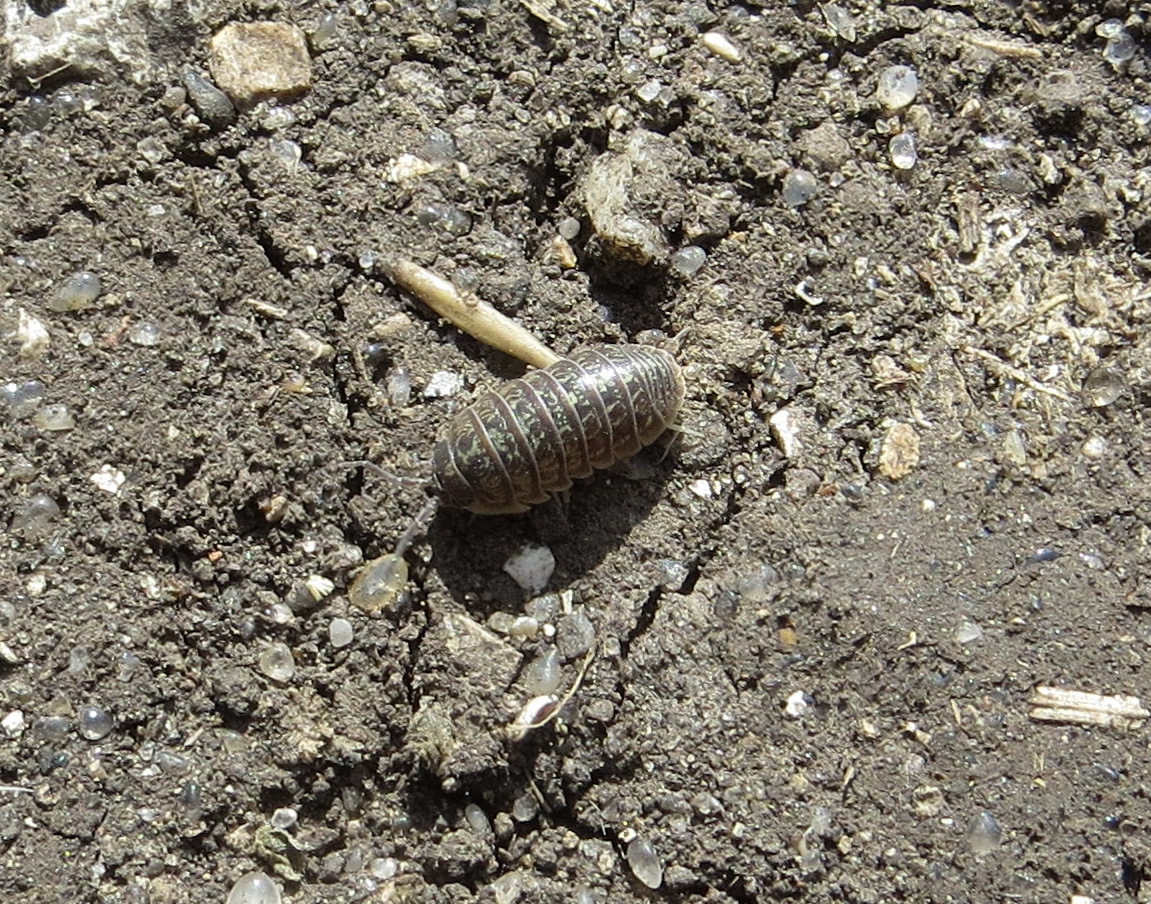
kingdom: Animalia
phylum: Arthropoda
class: Malacostraca
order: Isopoda
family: Armadillidiidae
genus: Armadillidium
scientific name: Armadillidium versicolor
